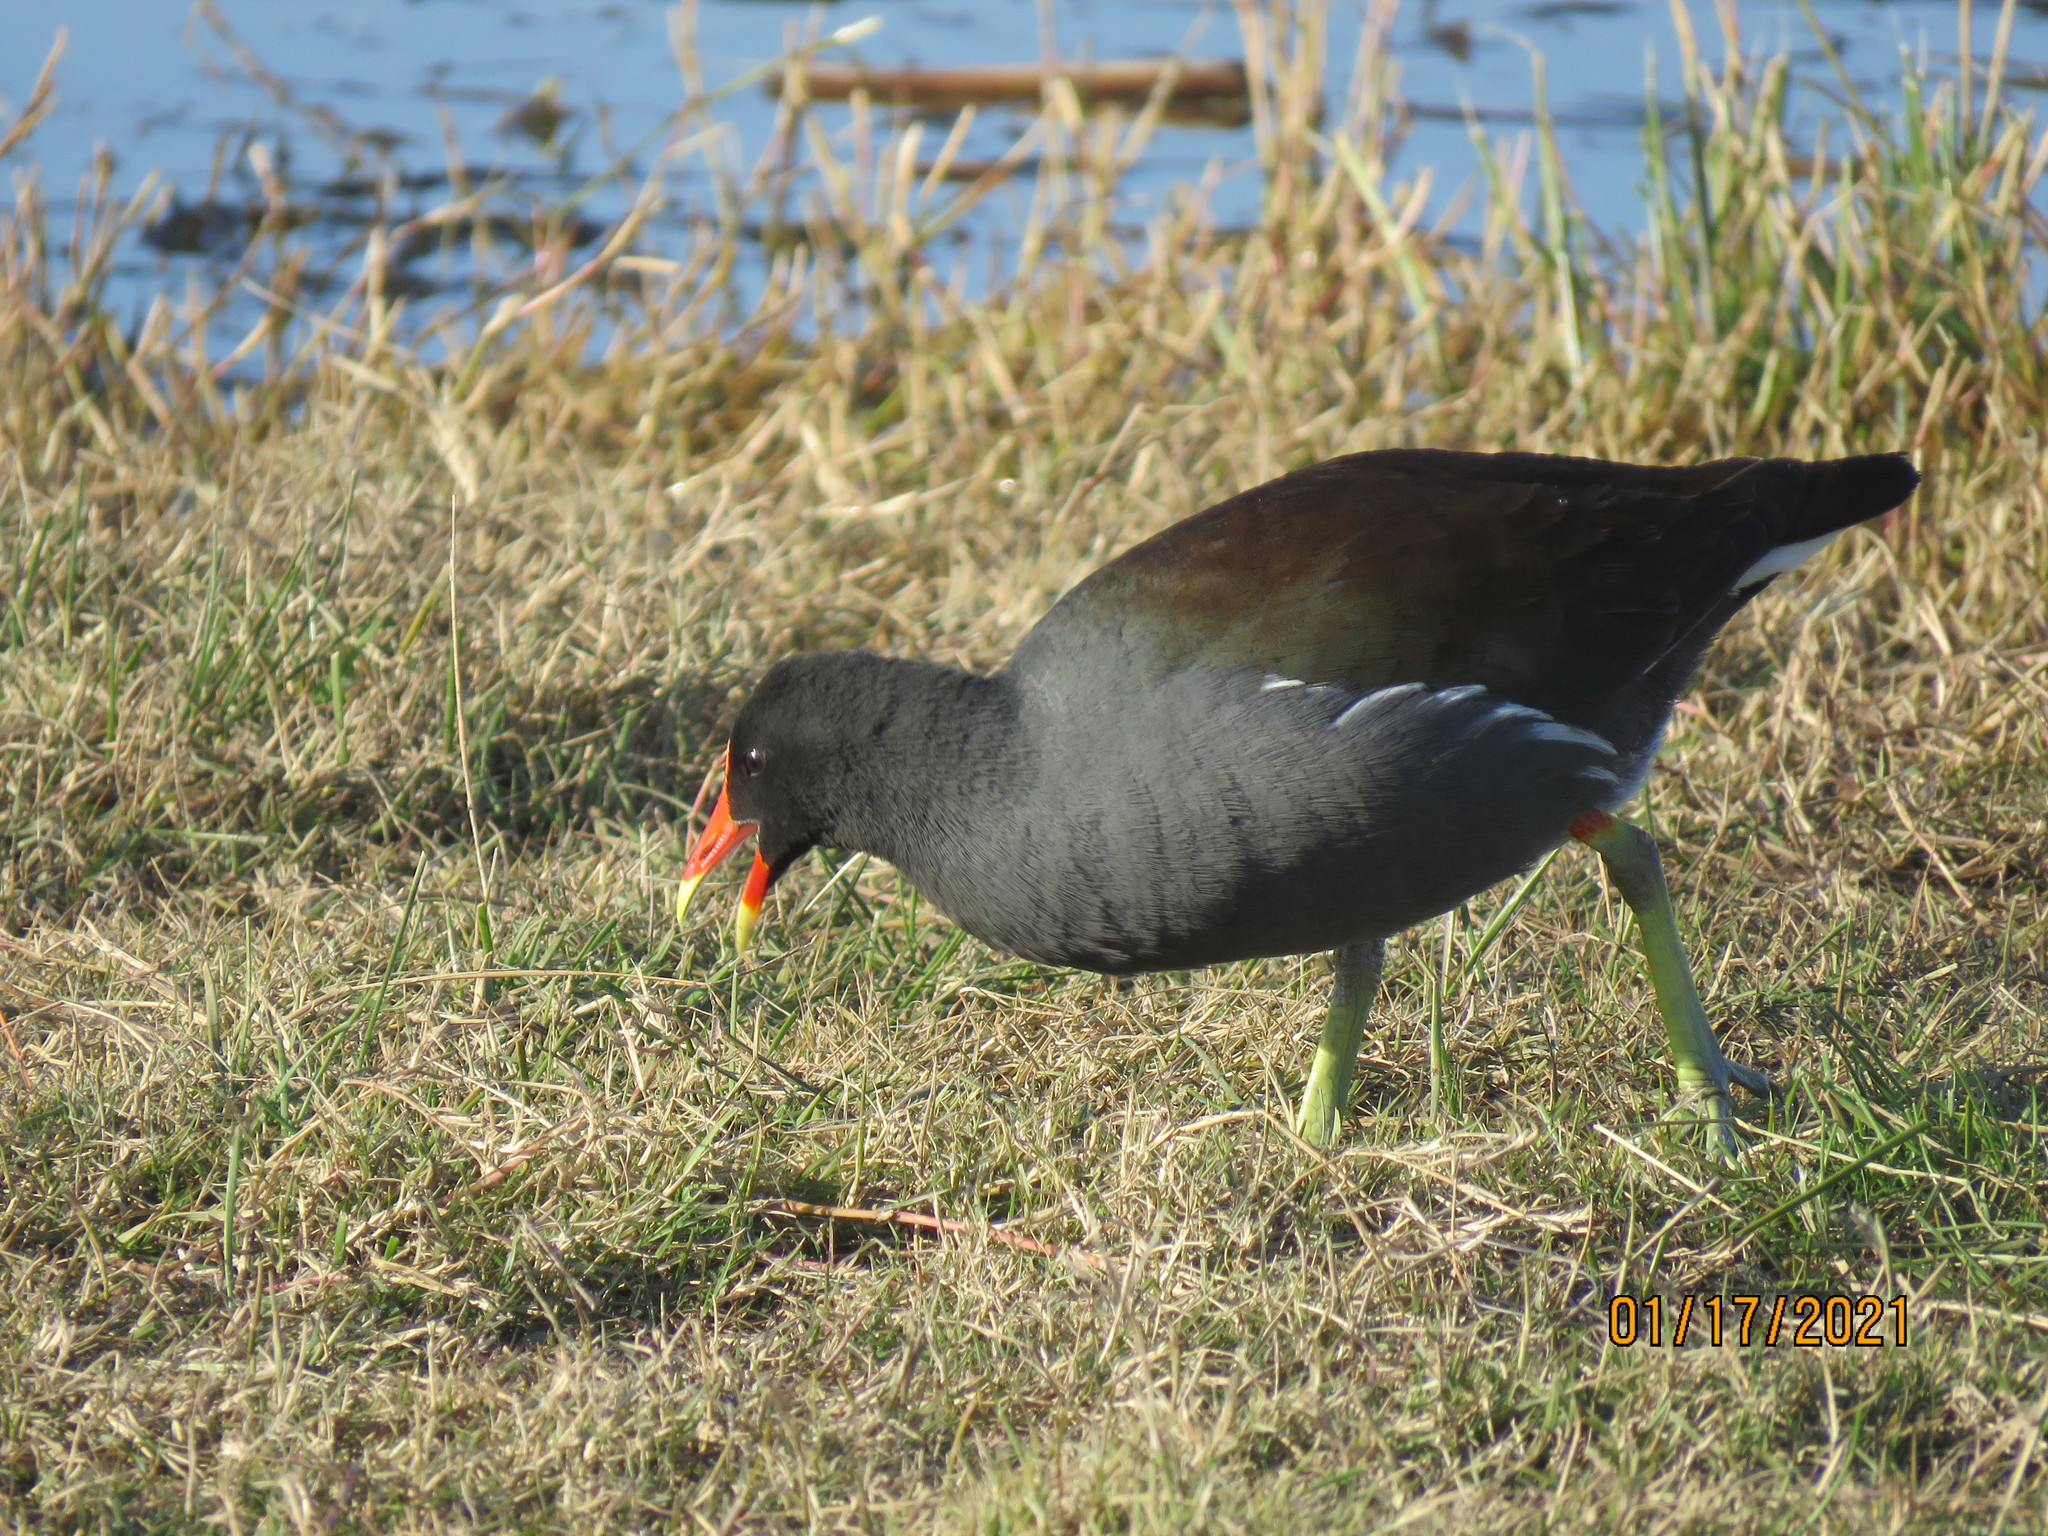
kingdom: Animalia
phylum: Chordata
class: Aves
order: Gruiformes
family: Rallidae
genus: Gallinula
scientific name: Gallinula chloropus
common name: Common moorhen
